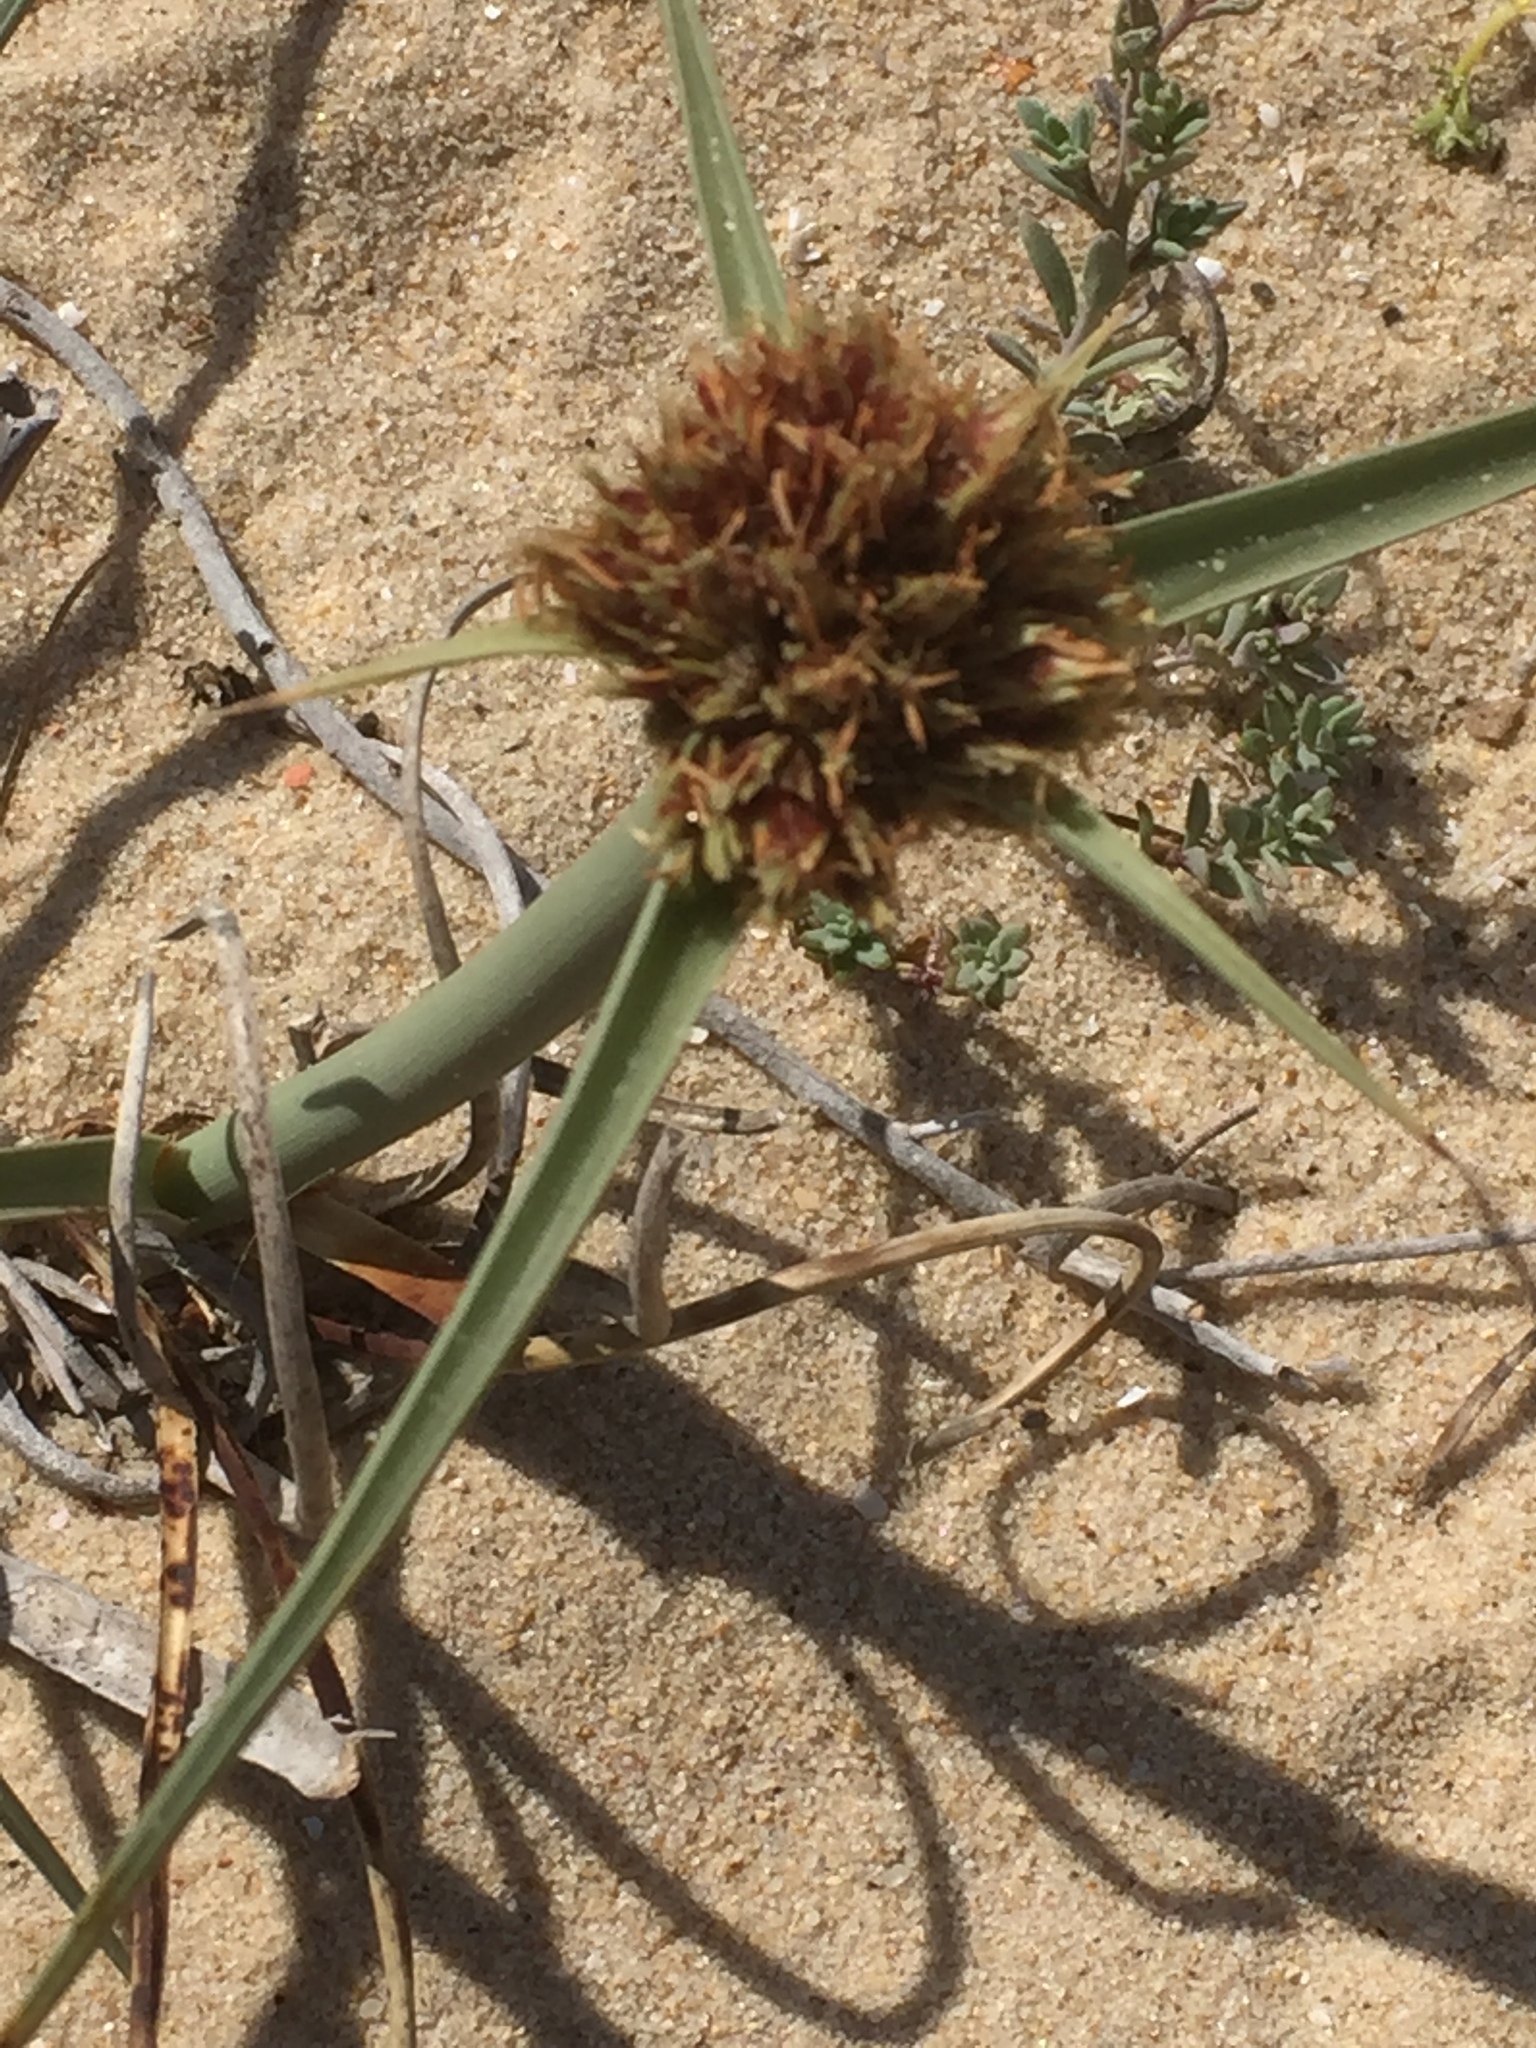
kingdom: Plantae
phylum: Tracheophyta
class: Liliopsida
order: Poales
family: Cyperaceae
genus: Cyperus
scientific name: Cyperus capitatus
